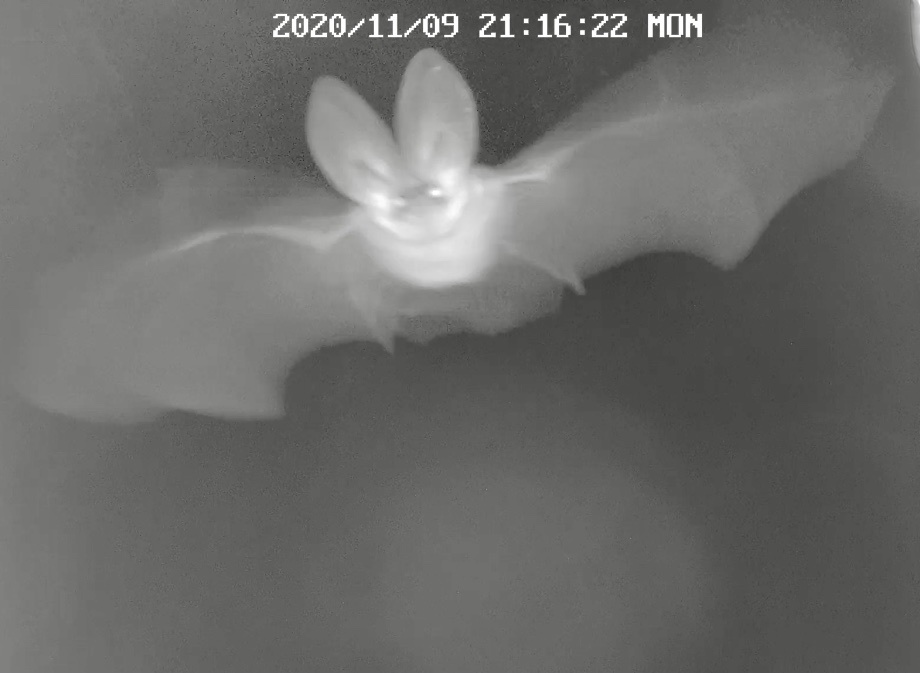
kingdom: Animalia
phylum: Chordata
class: Mammalia
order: Chiroptera
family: Vespertilionidae
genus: Plecotus
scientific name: Plecotus
